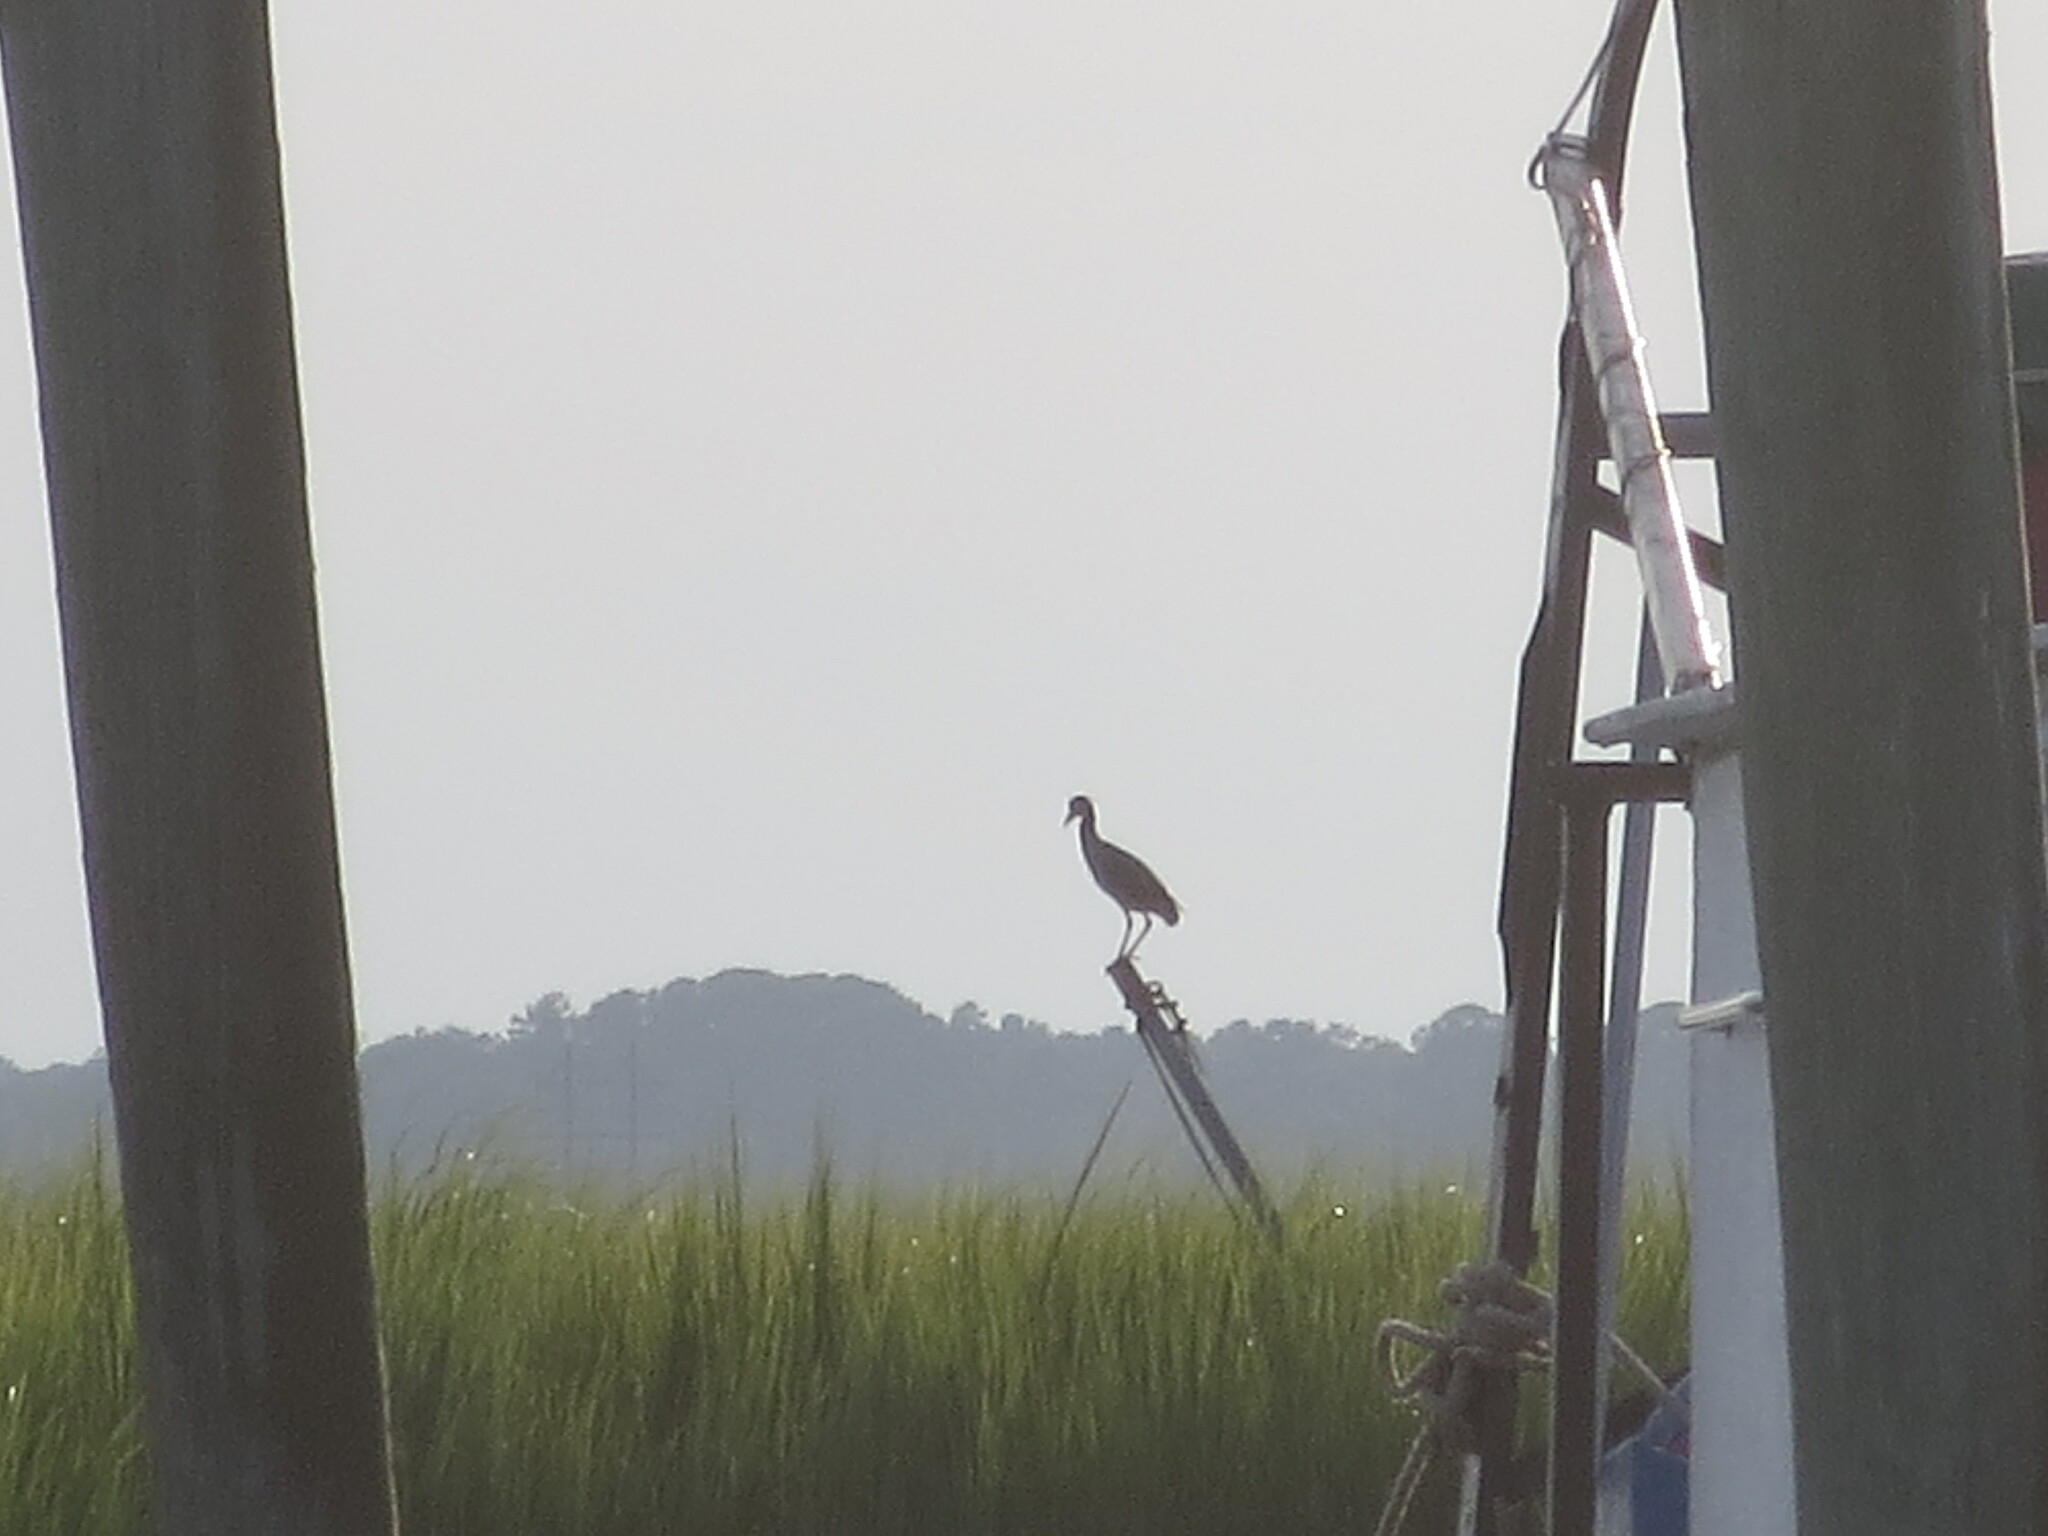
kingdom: Animalia
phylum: Chordata
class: Aves
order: Pelecaniformes
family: Ardeidae
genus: Nyctanassa
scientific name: Nyctanassa violacea
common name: Yellow-crowned night heron
